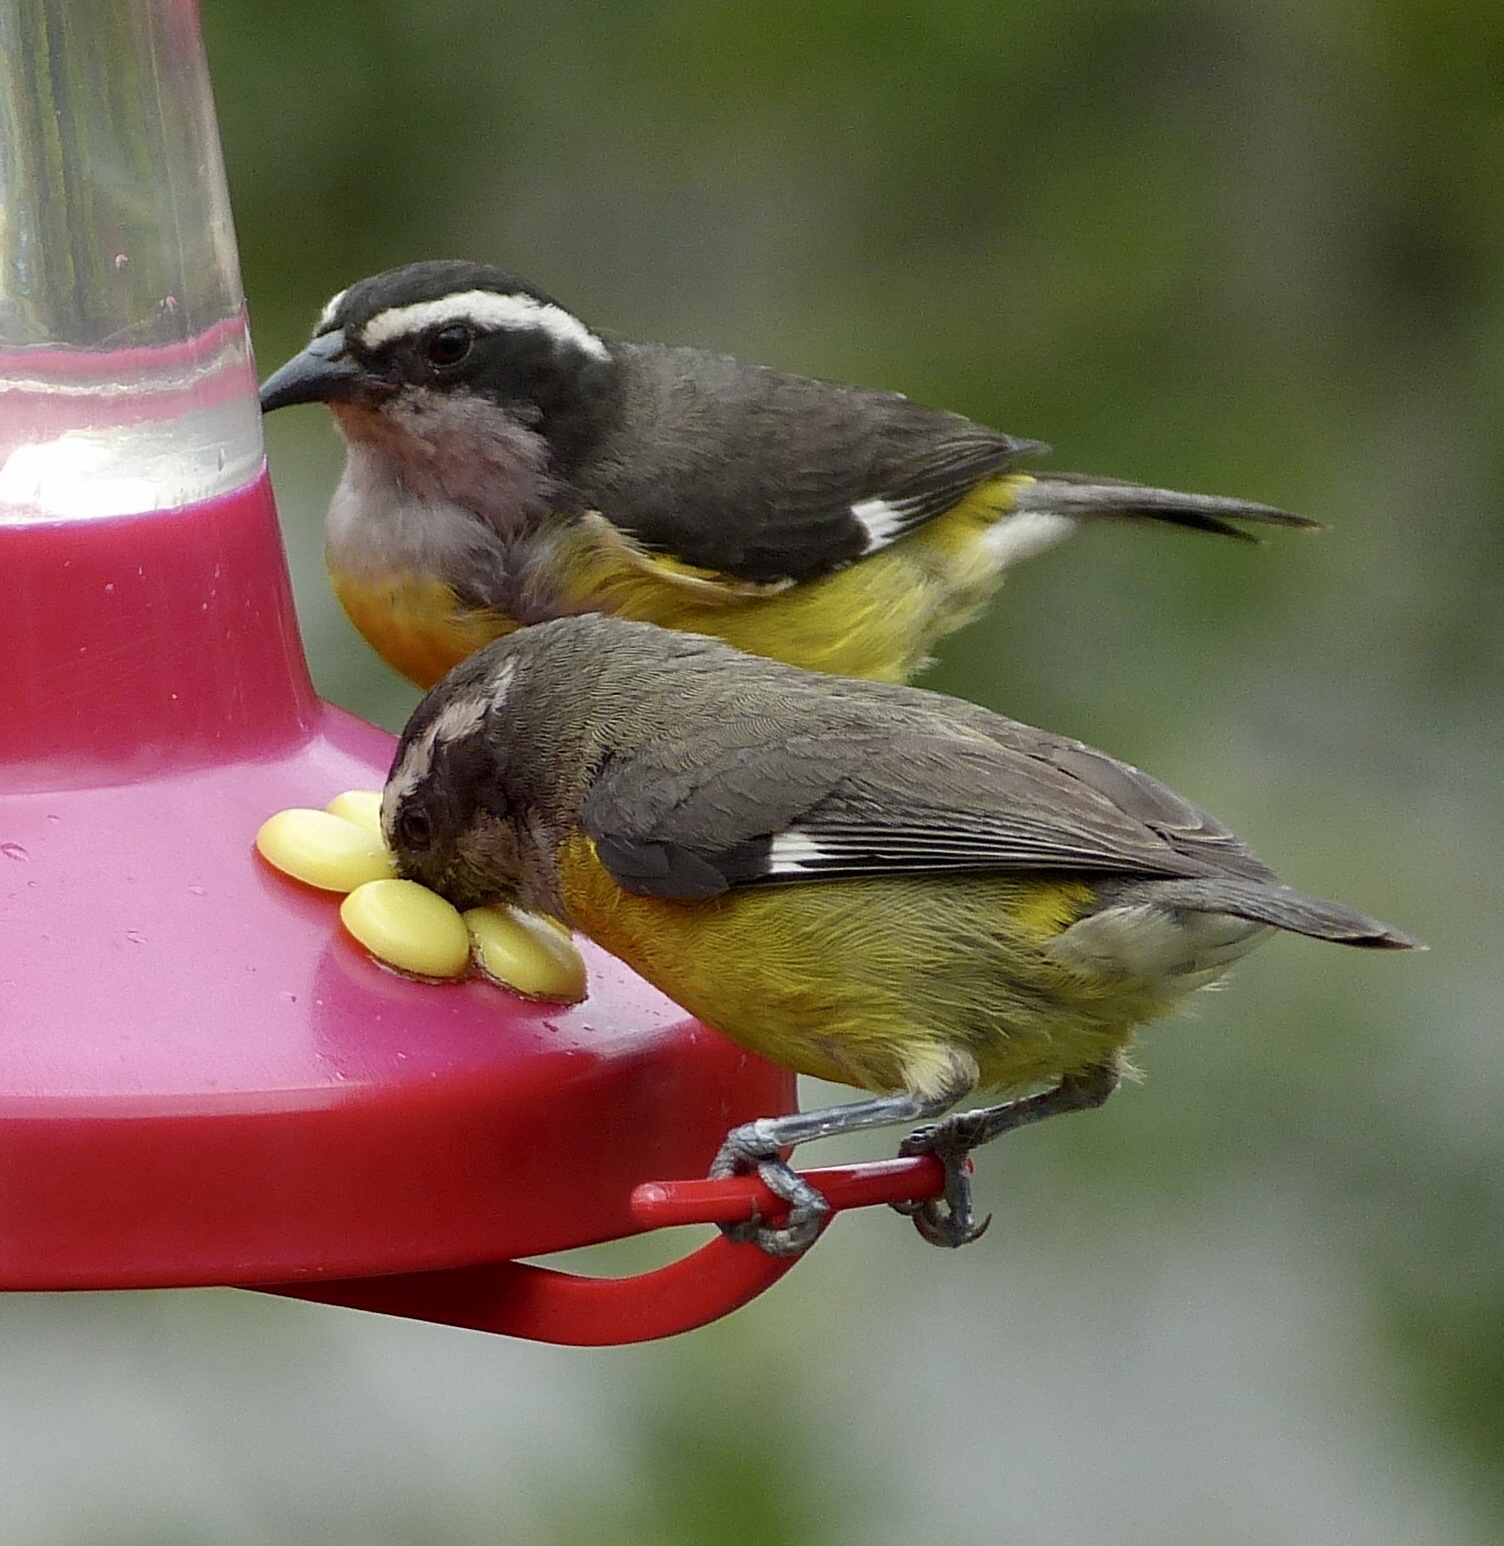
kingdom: Animalia
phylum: Chordata
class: Aves
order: Passeriformes
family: Thraupidae
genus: Coereba
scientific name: Coereba flaveola
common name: Bananaquit
